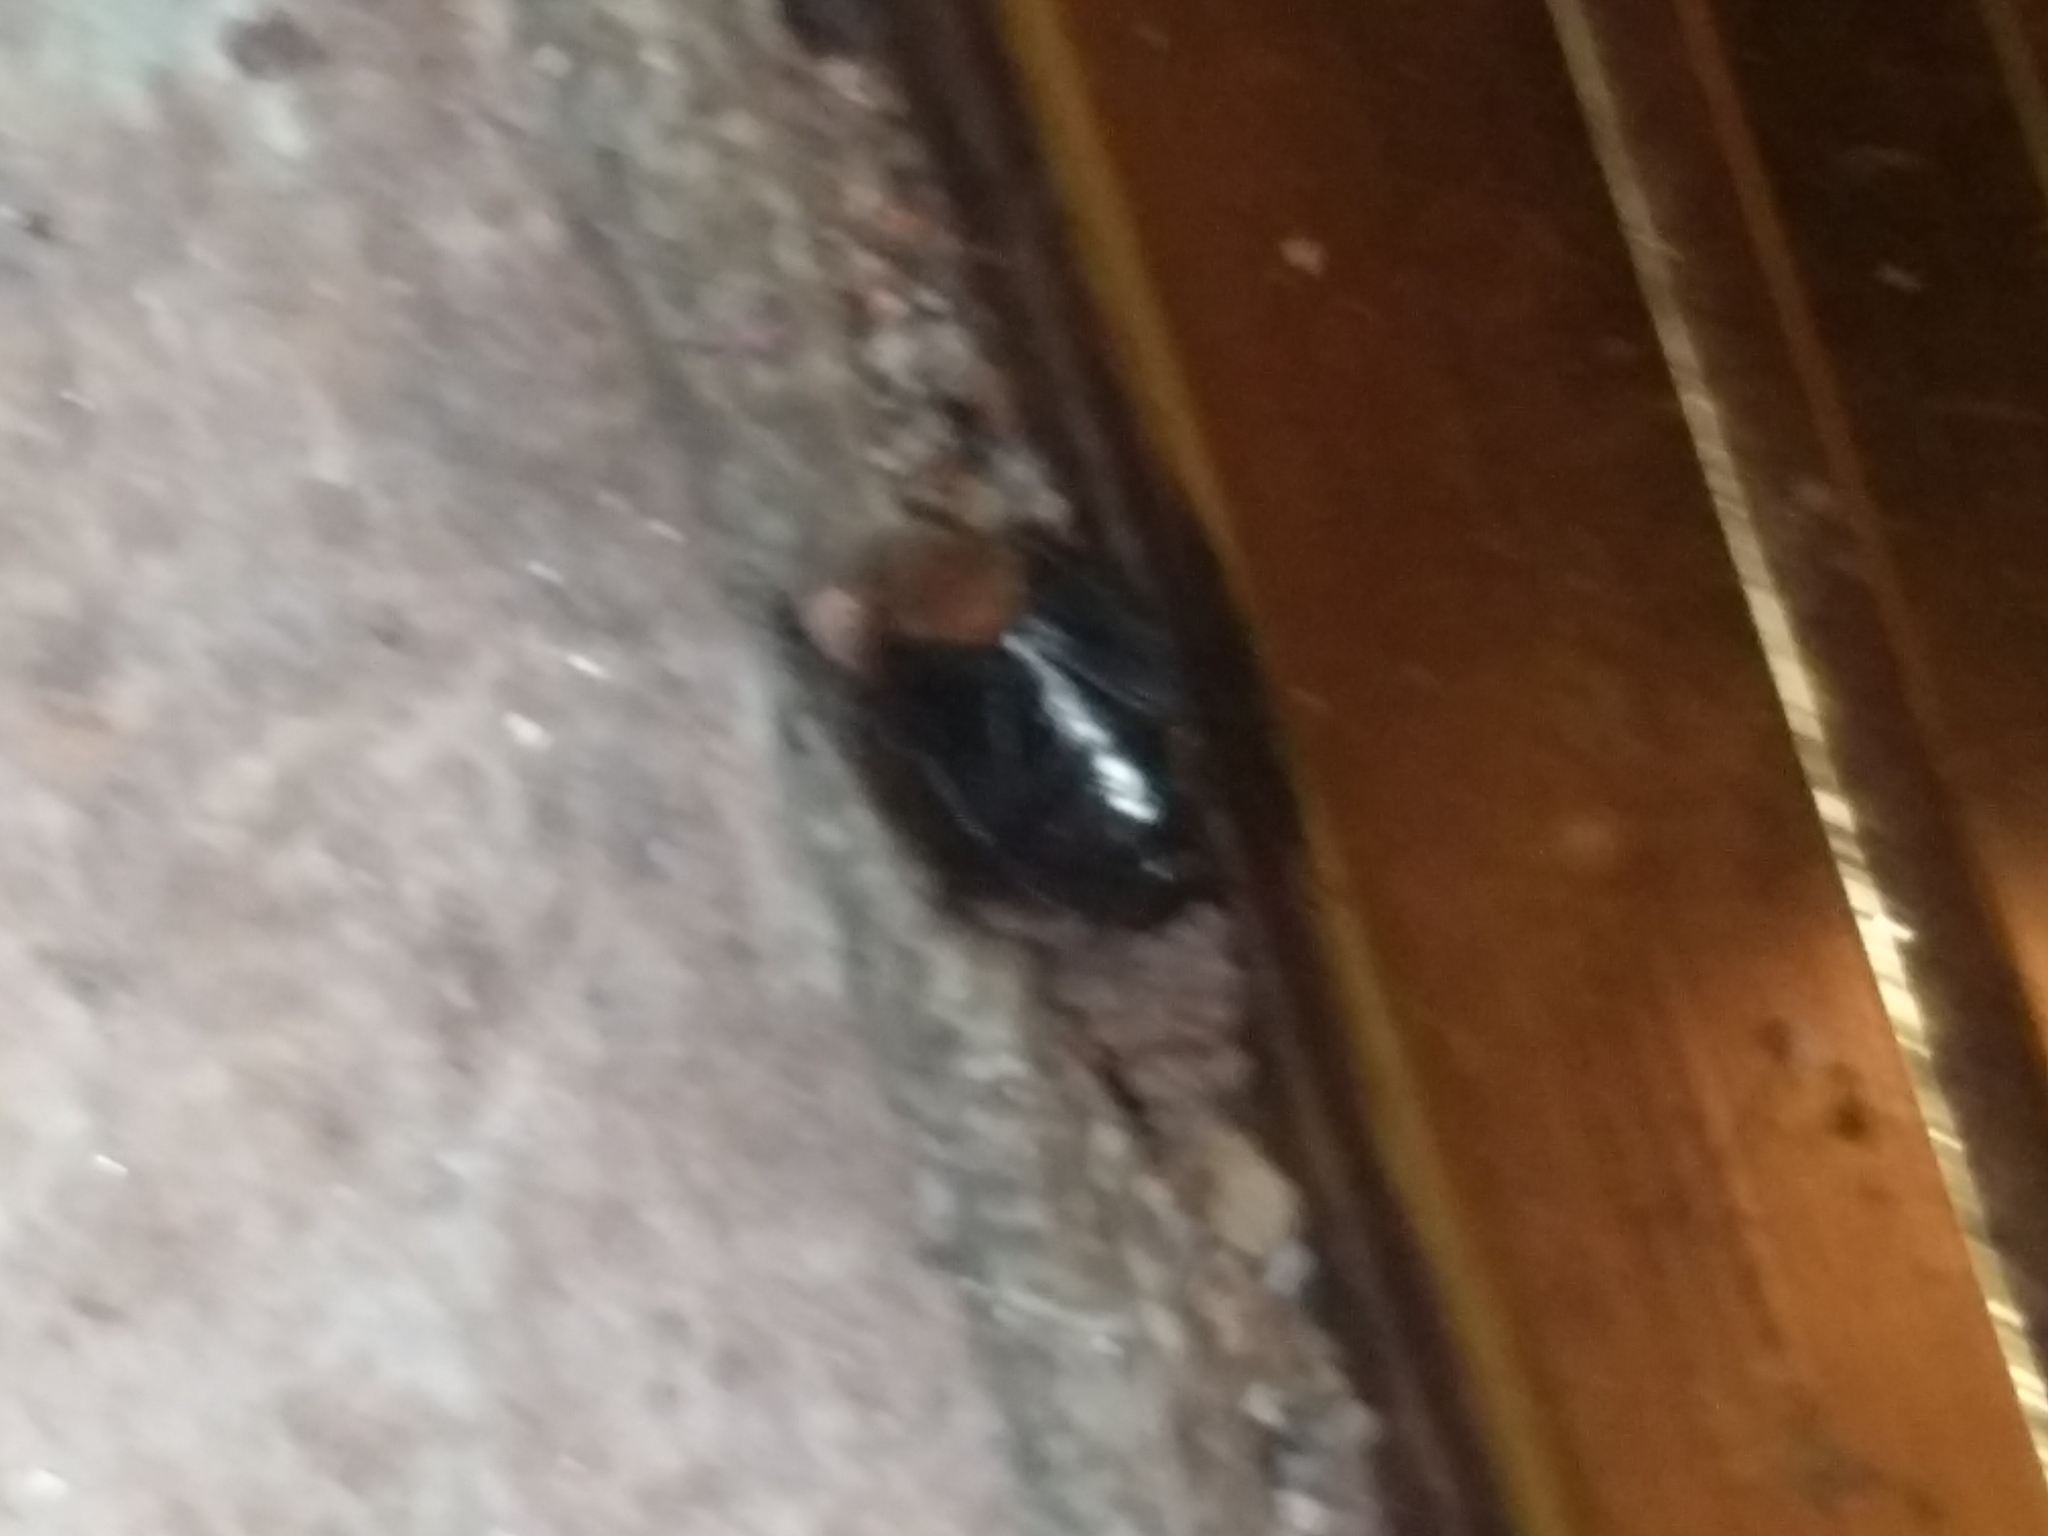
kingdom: Animalia
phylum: Arthropoda
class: Insecta
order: Hemiptera
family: Cydnidae
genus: Pangaeus
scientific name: Pangaeus bilineatus
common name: Burrower bug
